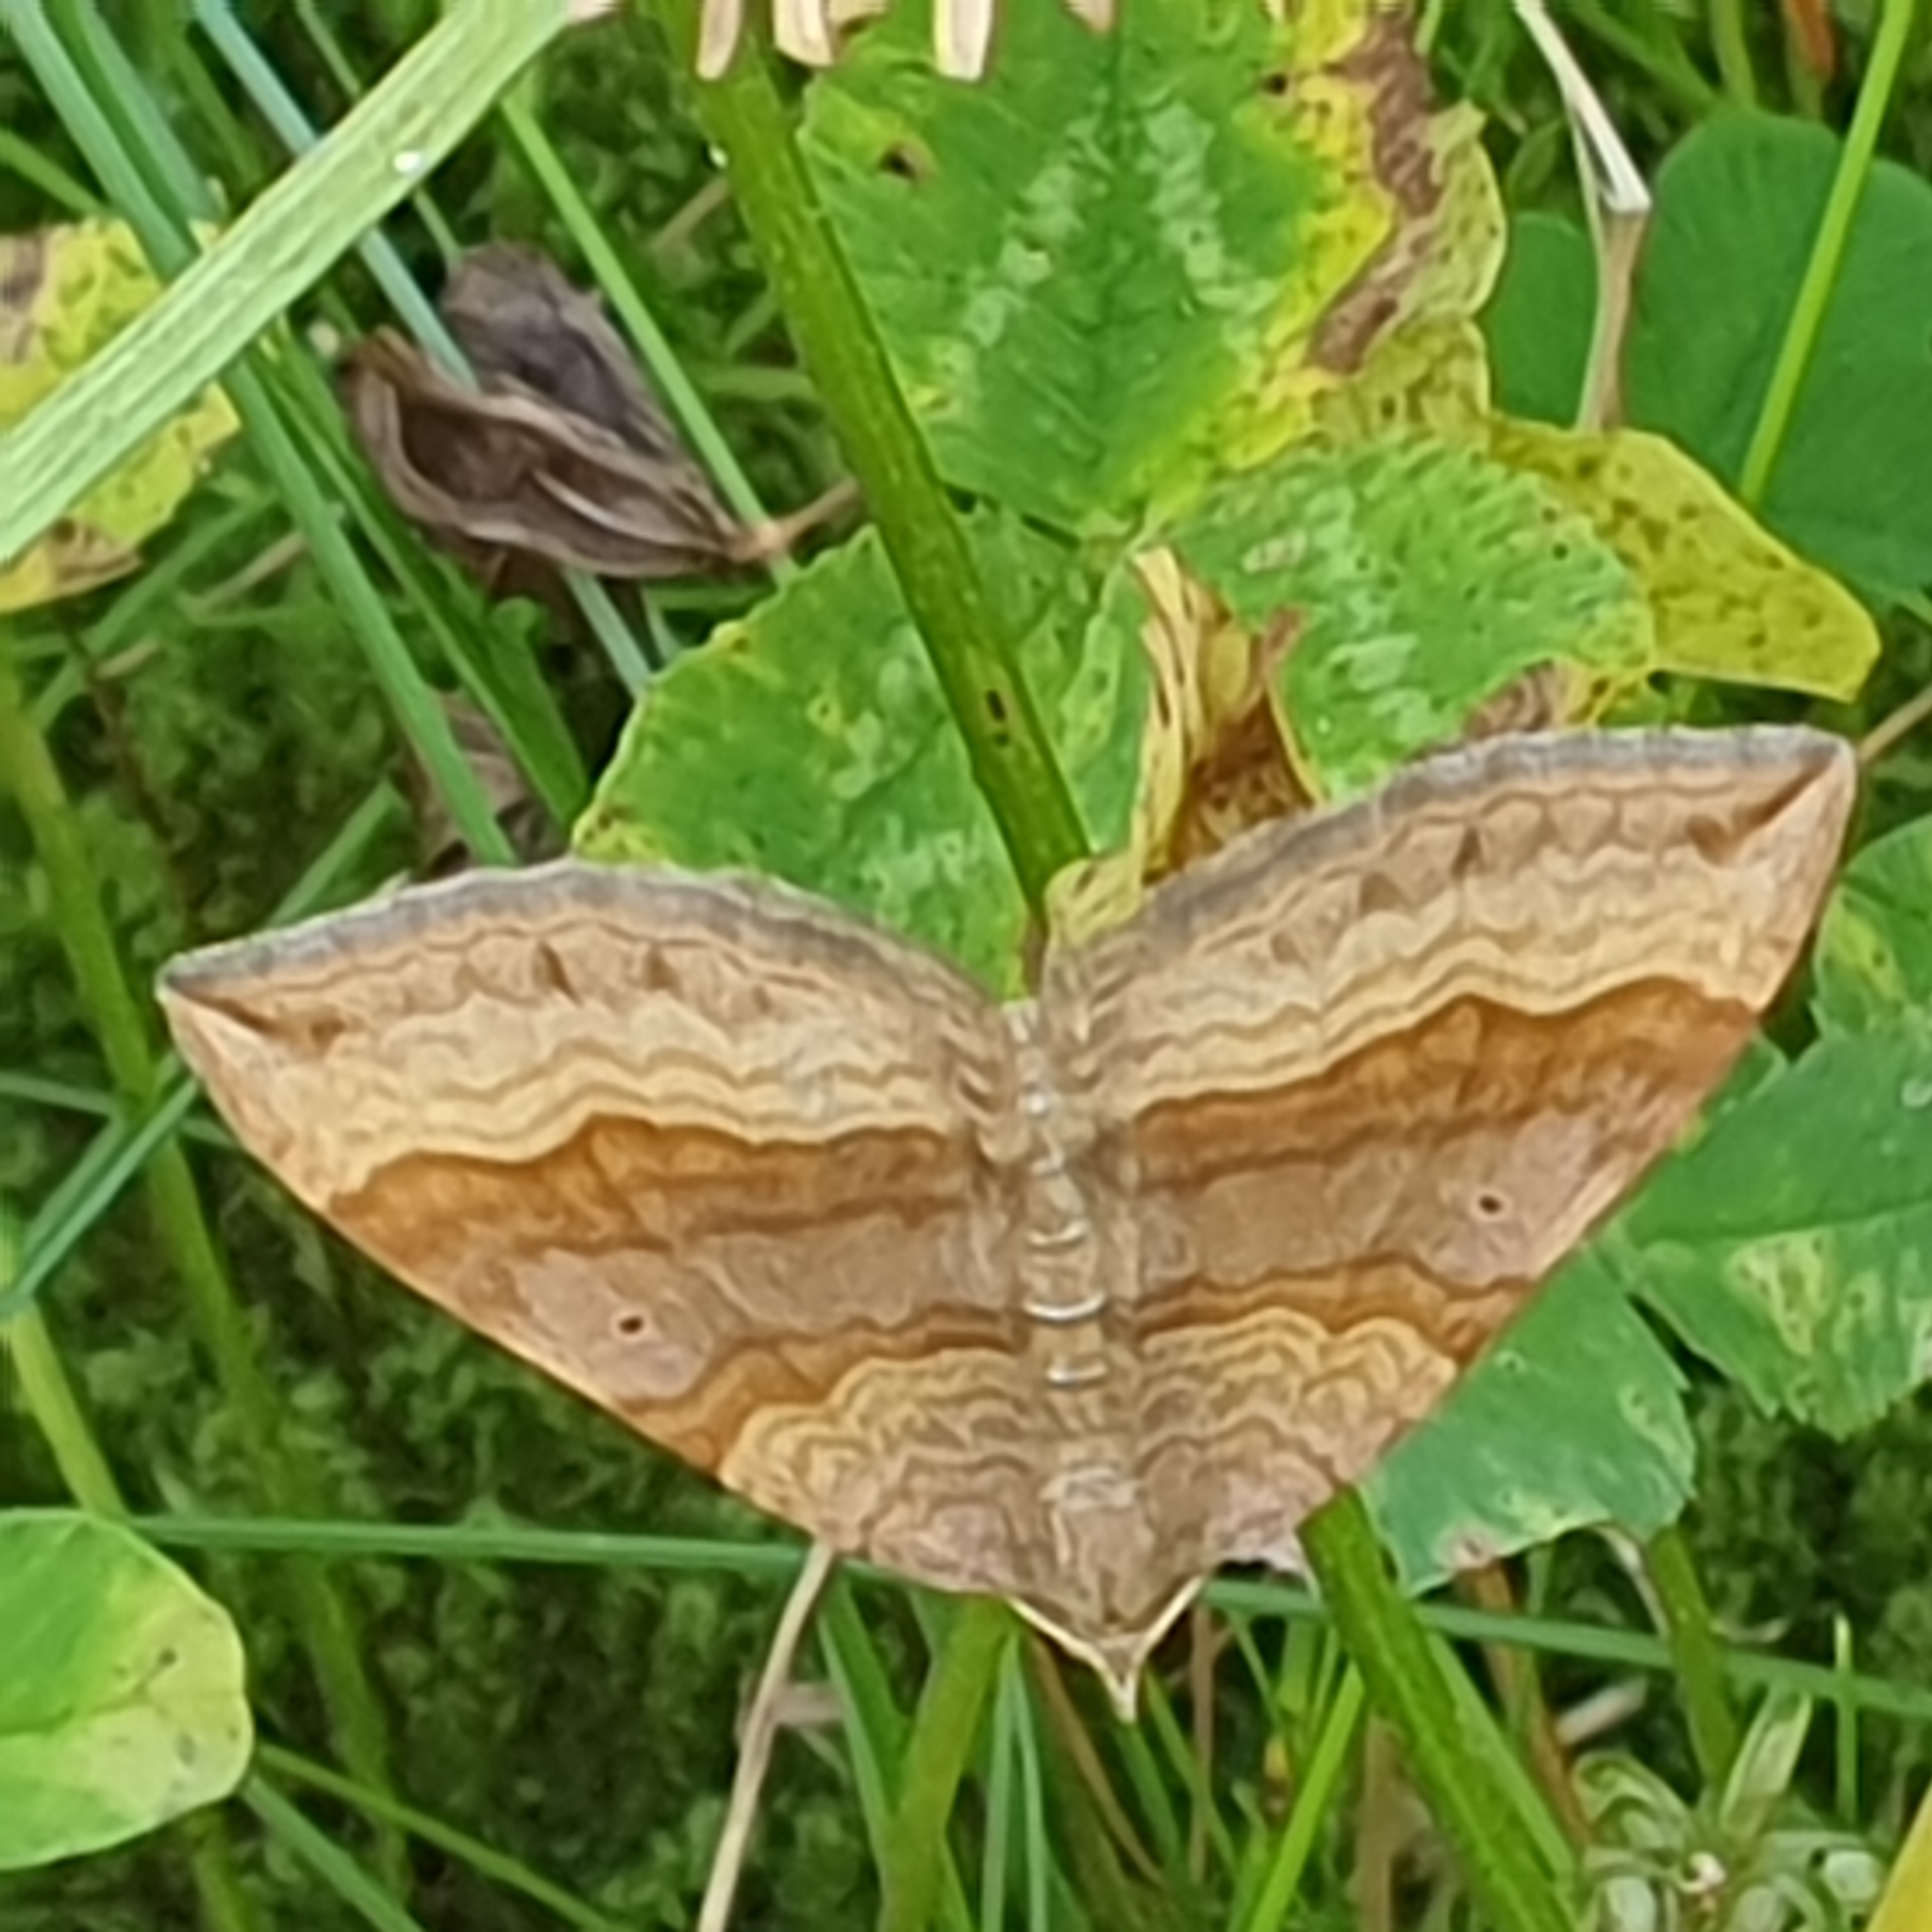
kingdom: Animalia
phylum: Arthropoda
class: Insecta
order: Lepidoptera
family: Geometridae
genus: Scotopteryx
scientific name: Scotopteryx chenopodiata
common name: Shaded broad-bar
